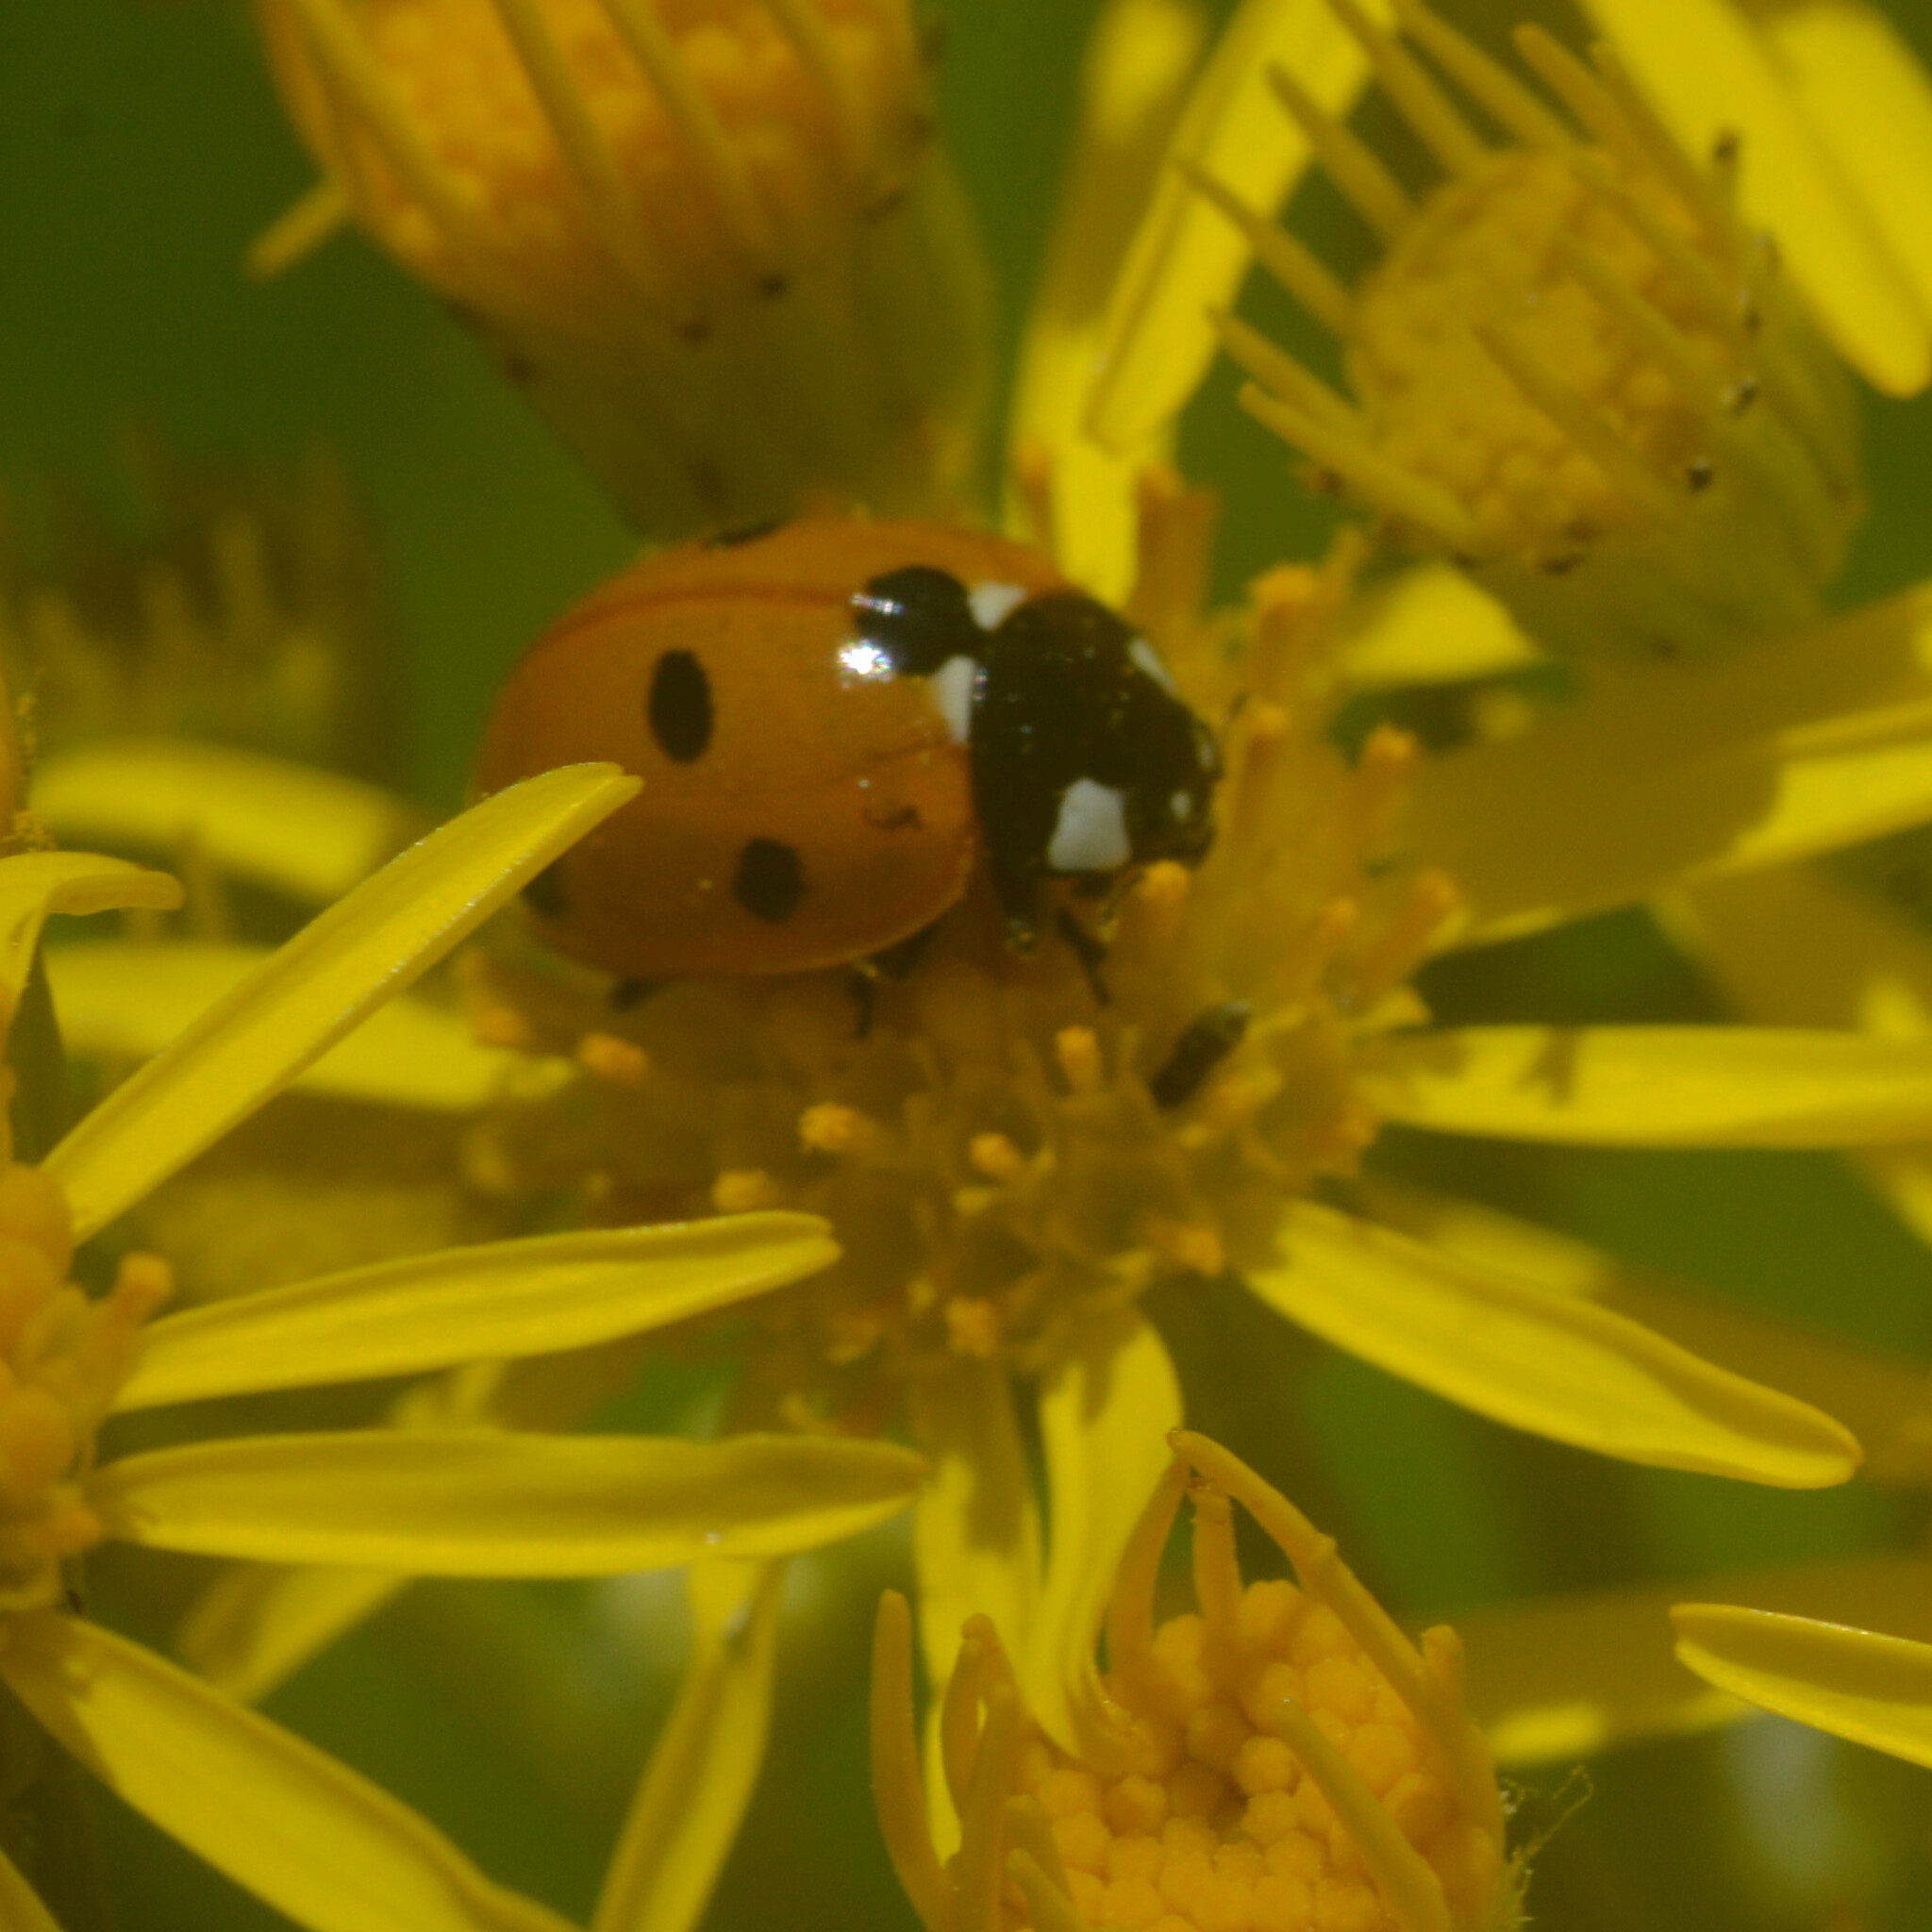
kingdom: Animalia
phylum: Arthropoda
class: Insecta
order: Coleoptera
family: Coccinellidae
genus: Coccinella
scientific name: Coccinella septempunctata
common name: Sevenspotted lady beetle
